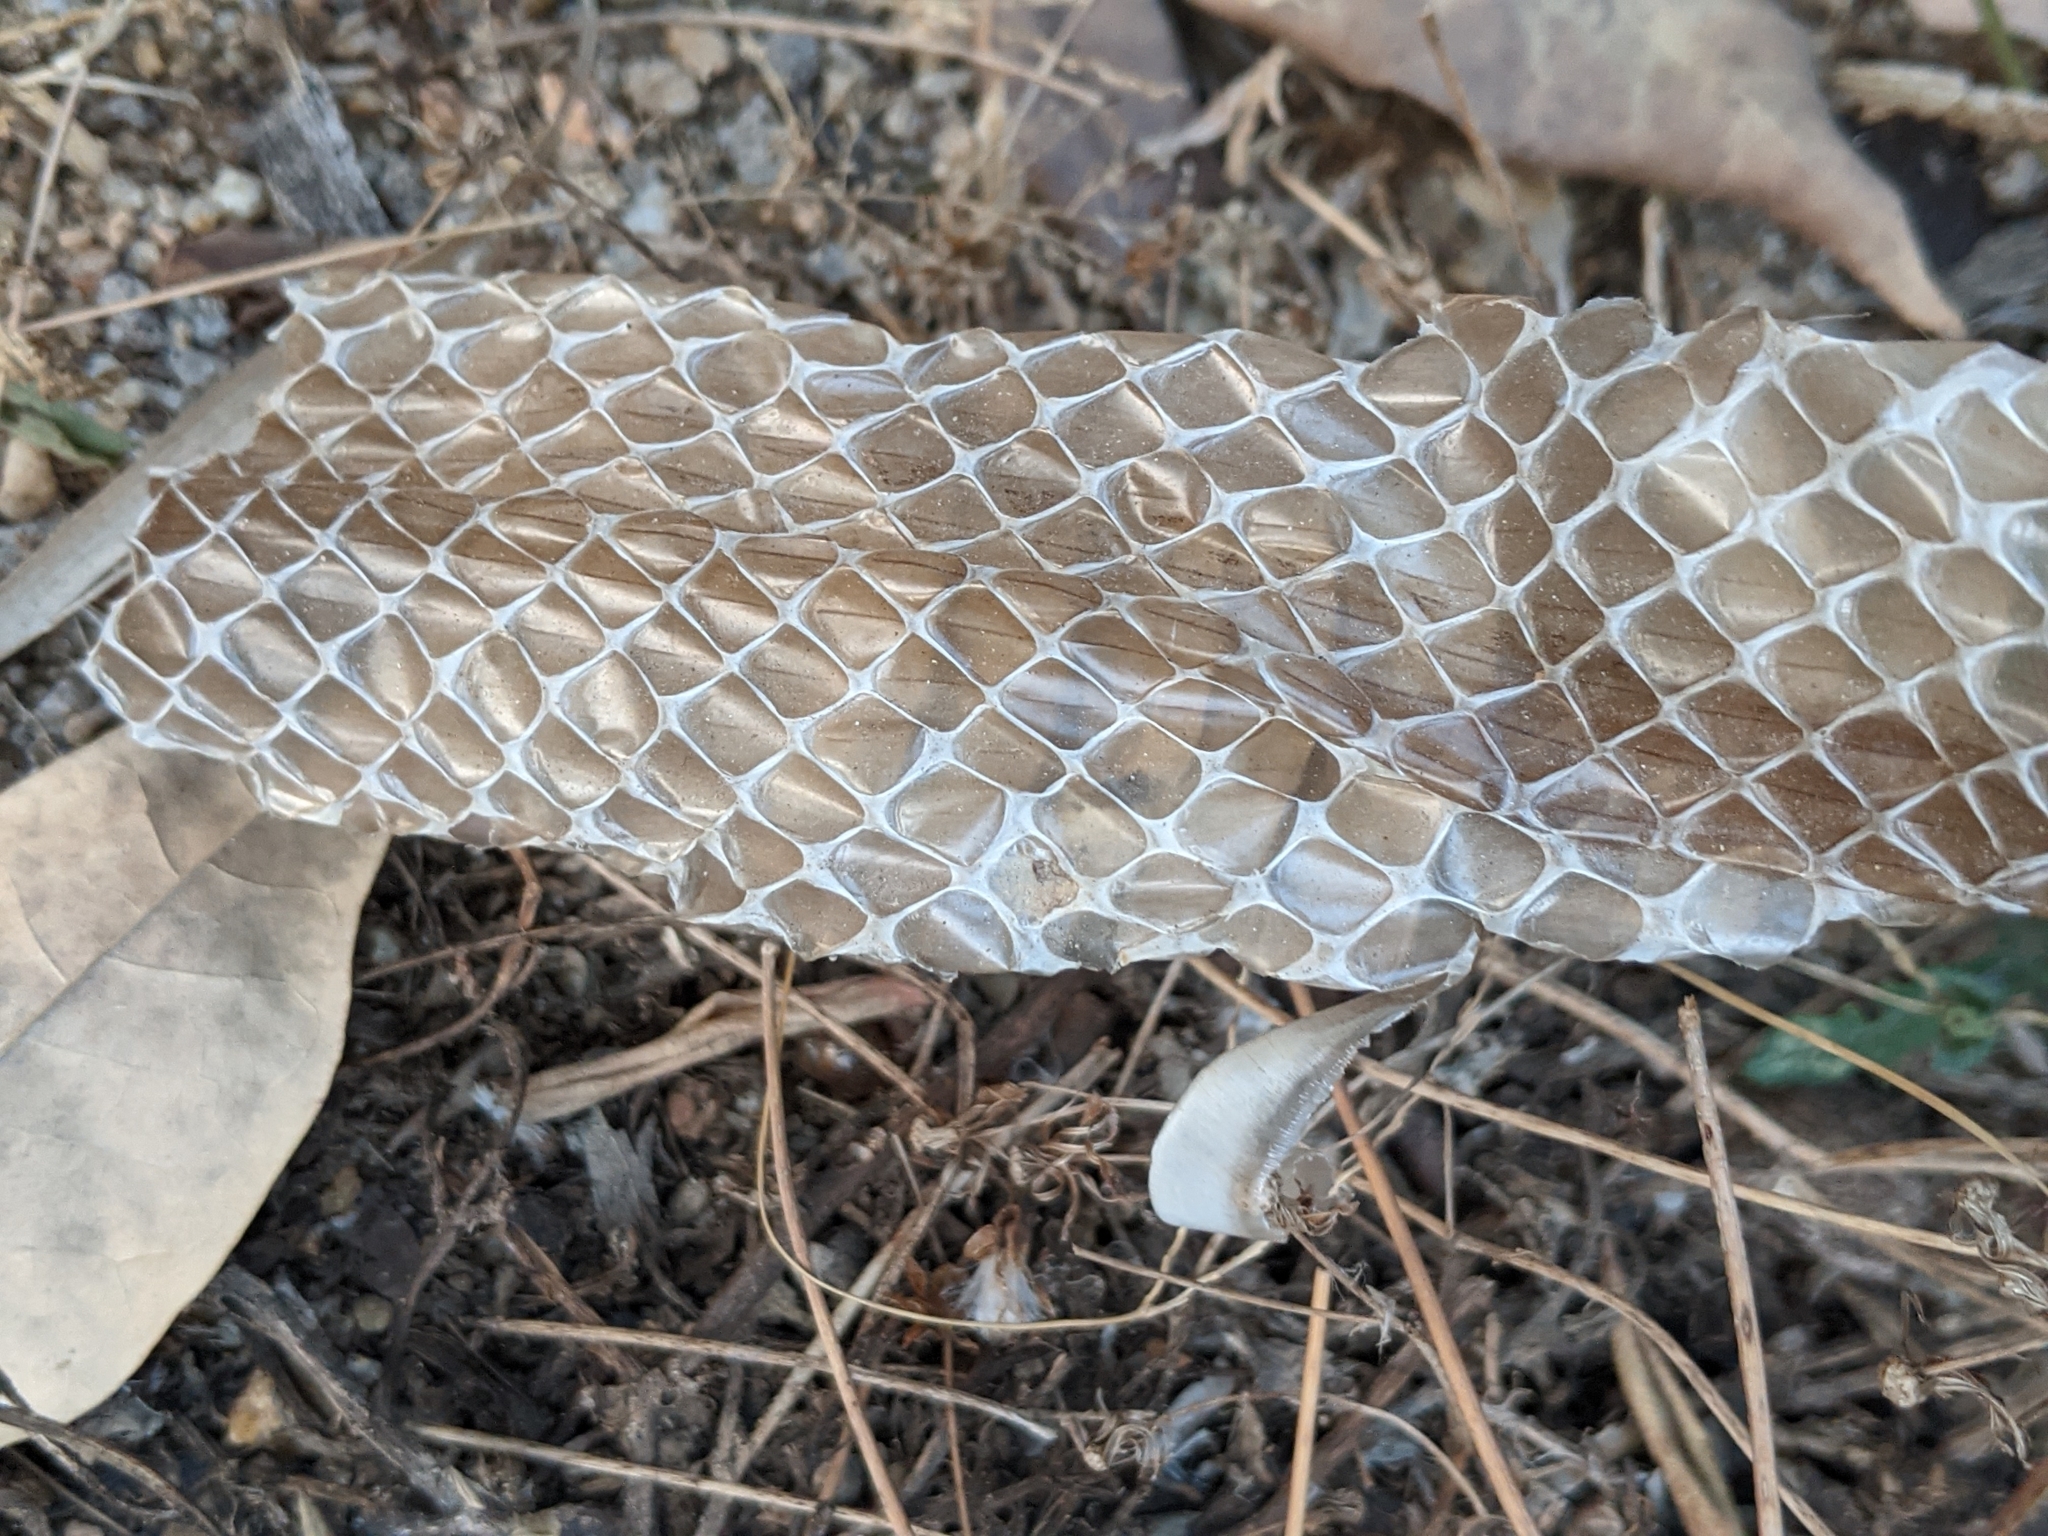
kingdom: Animalia
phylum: Chordata
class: Squamata
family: Colubridae
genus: Ptyas
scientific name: Ptyas mucosa
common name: Oriental ratsnake
